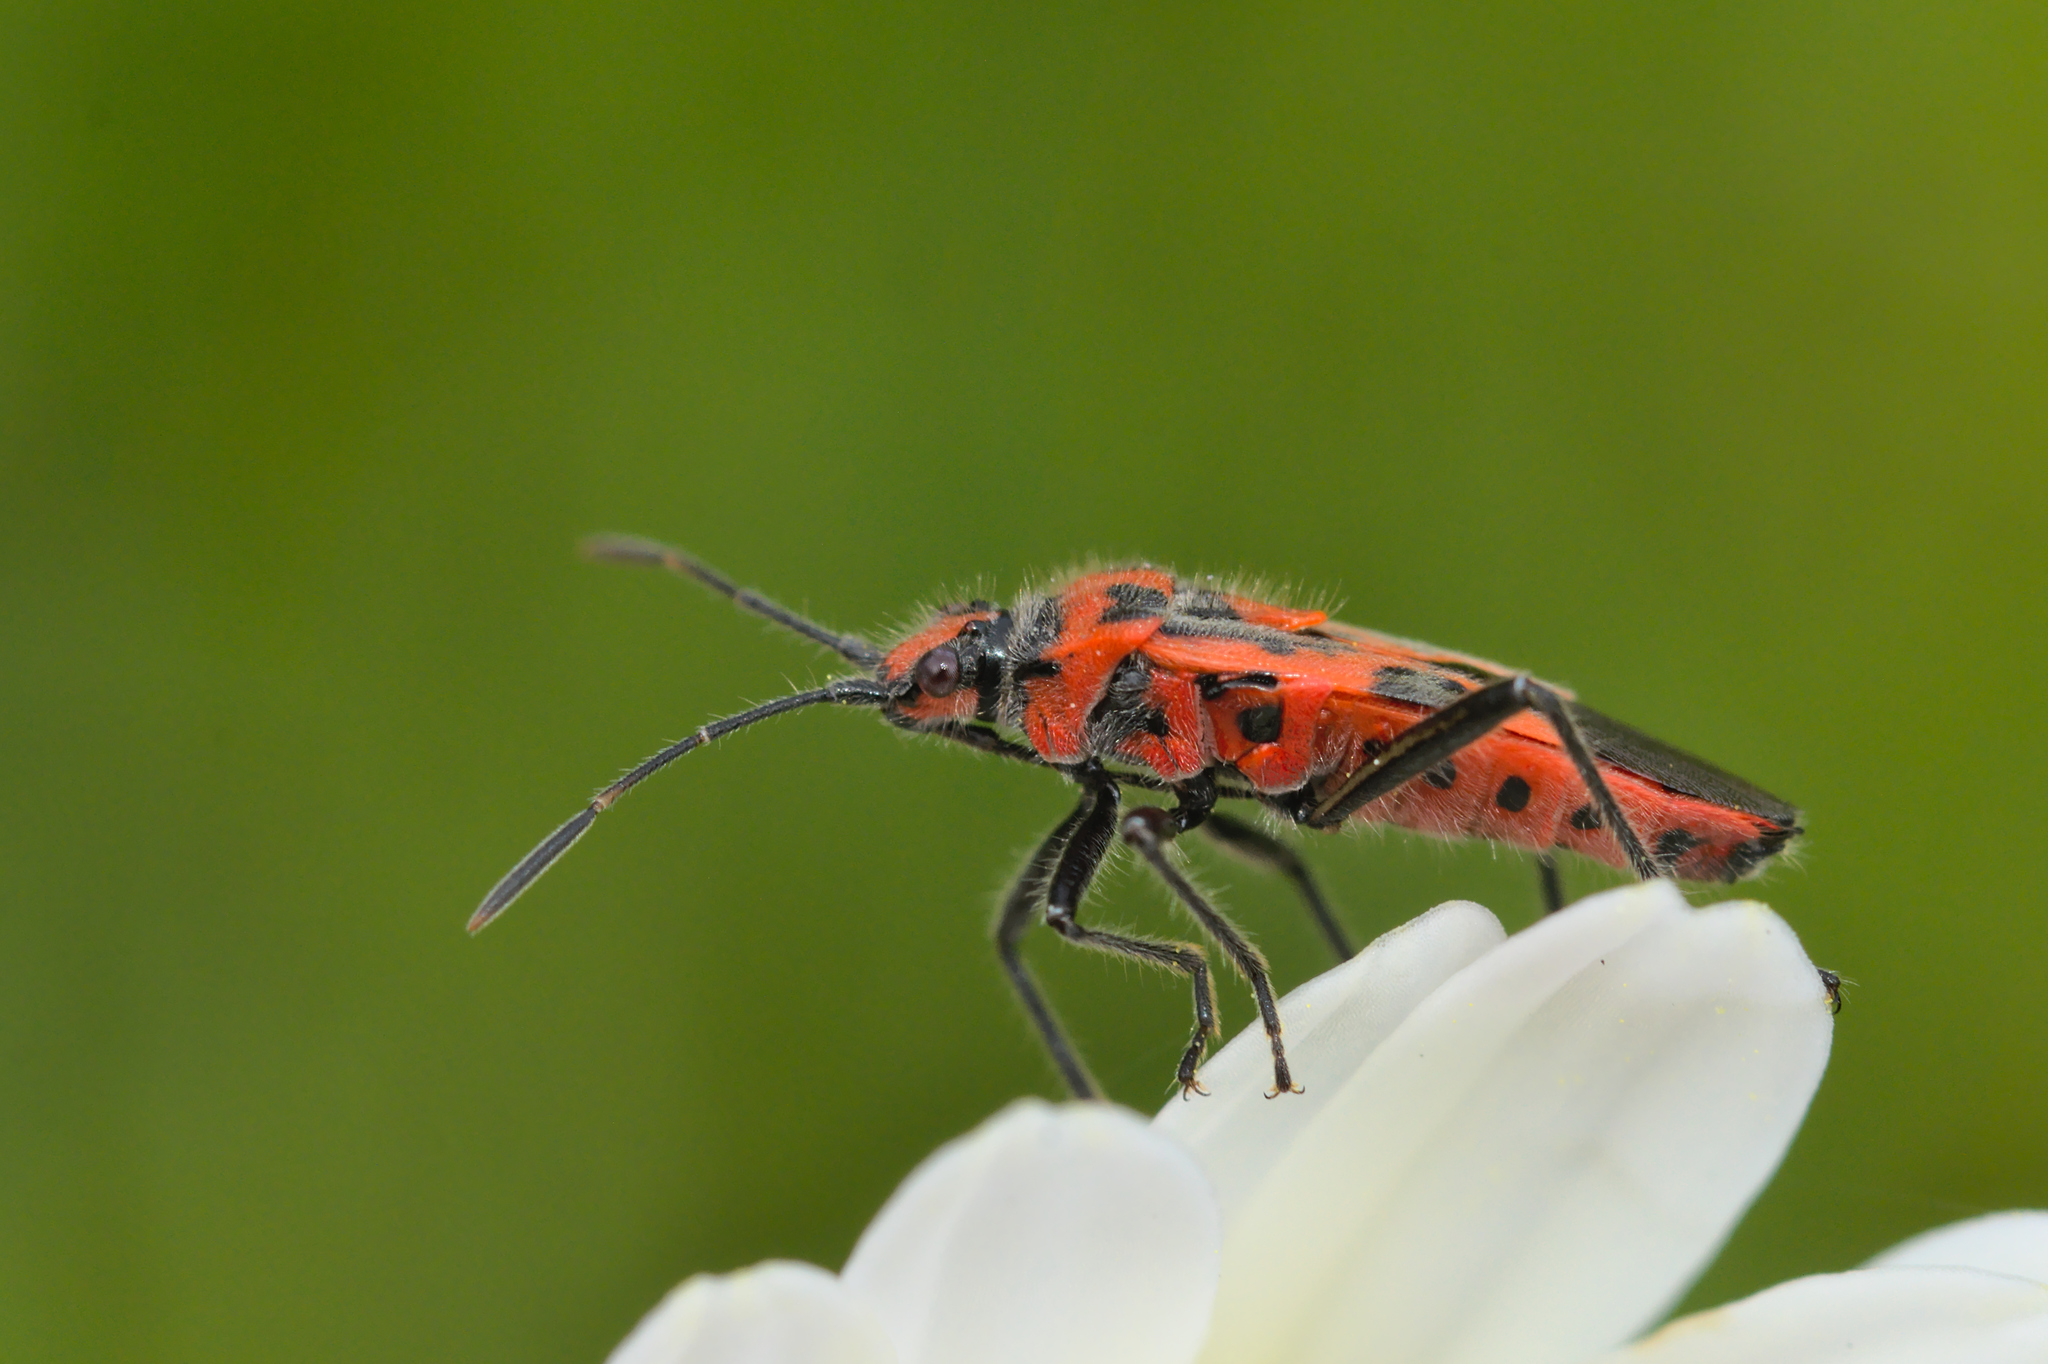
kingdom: Animalia
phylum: Arthropoda
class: Insecta
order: Hemiptera
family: Rhopalidae
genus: Corizus
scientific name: Corizus hyoscyami
